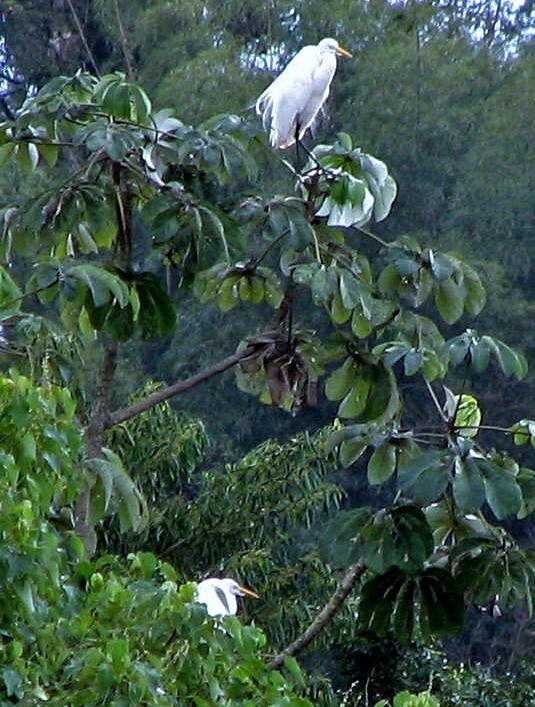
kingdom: Animalia
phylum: Chordata
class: Aves
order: Pelecaniformes
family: Ardeidae
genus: Ardea
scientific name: Ardea alba
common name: Great egret
